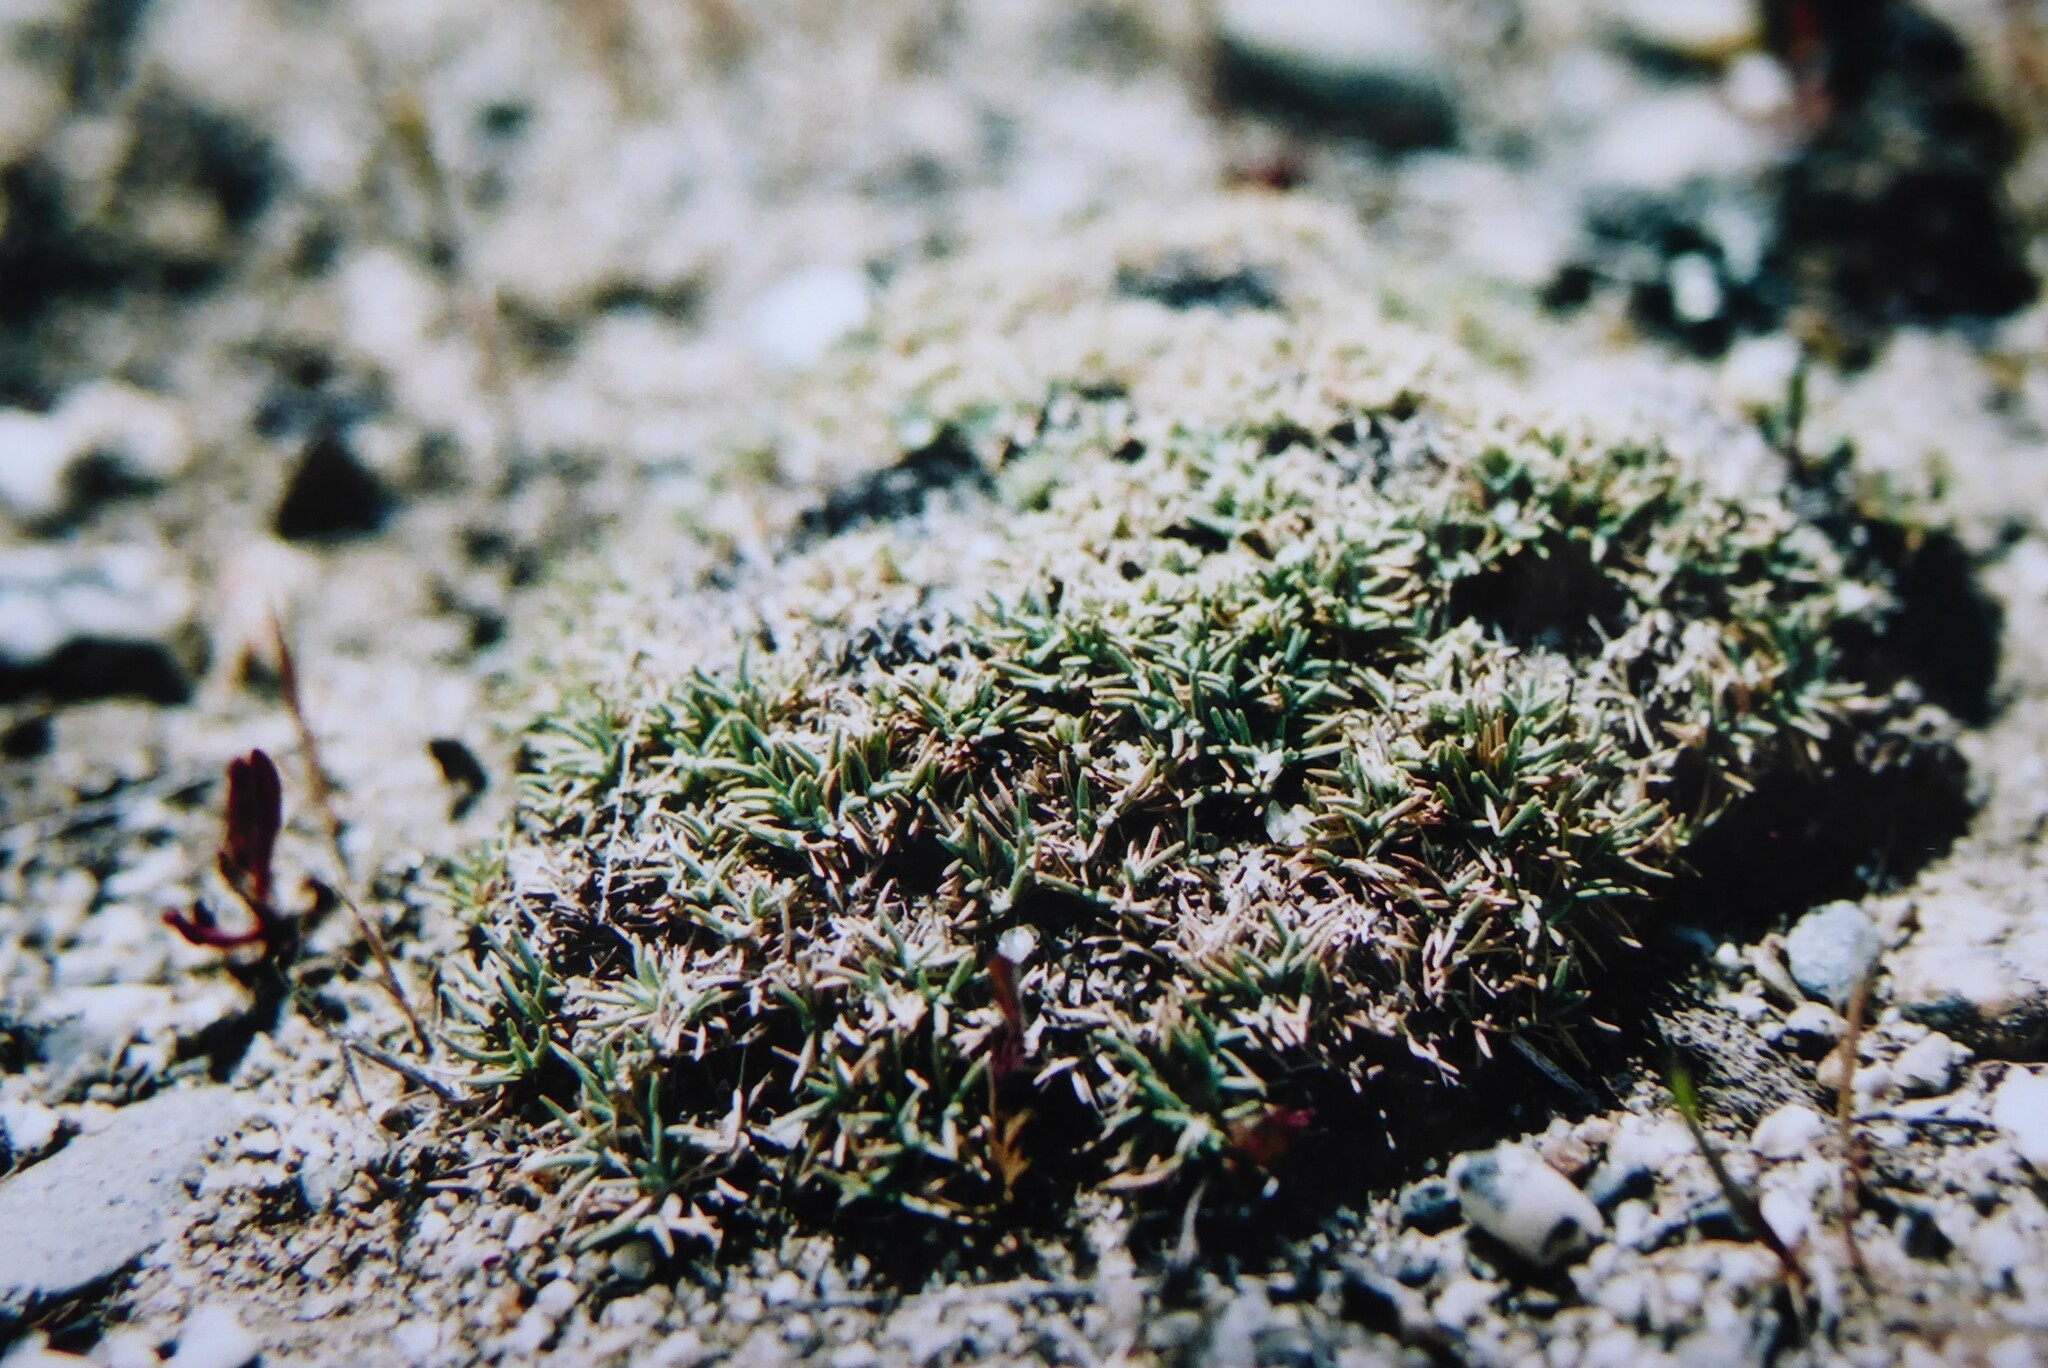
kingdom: Plantae
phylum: Tracheophyta
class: Liliopsida
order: Poales
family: Poaceae
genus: Agrostis
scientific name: Agrostis muscosa
